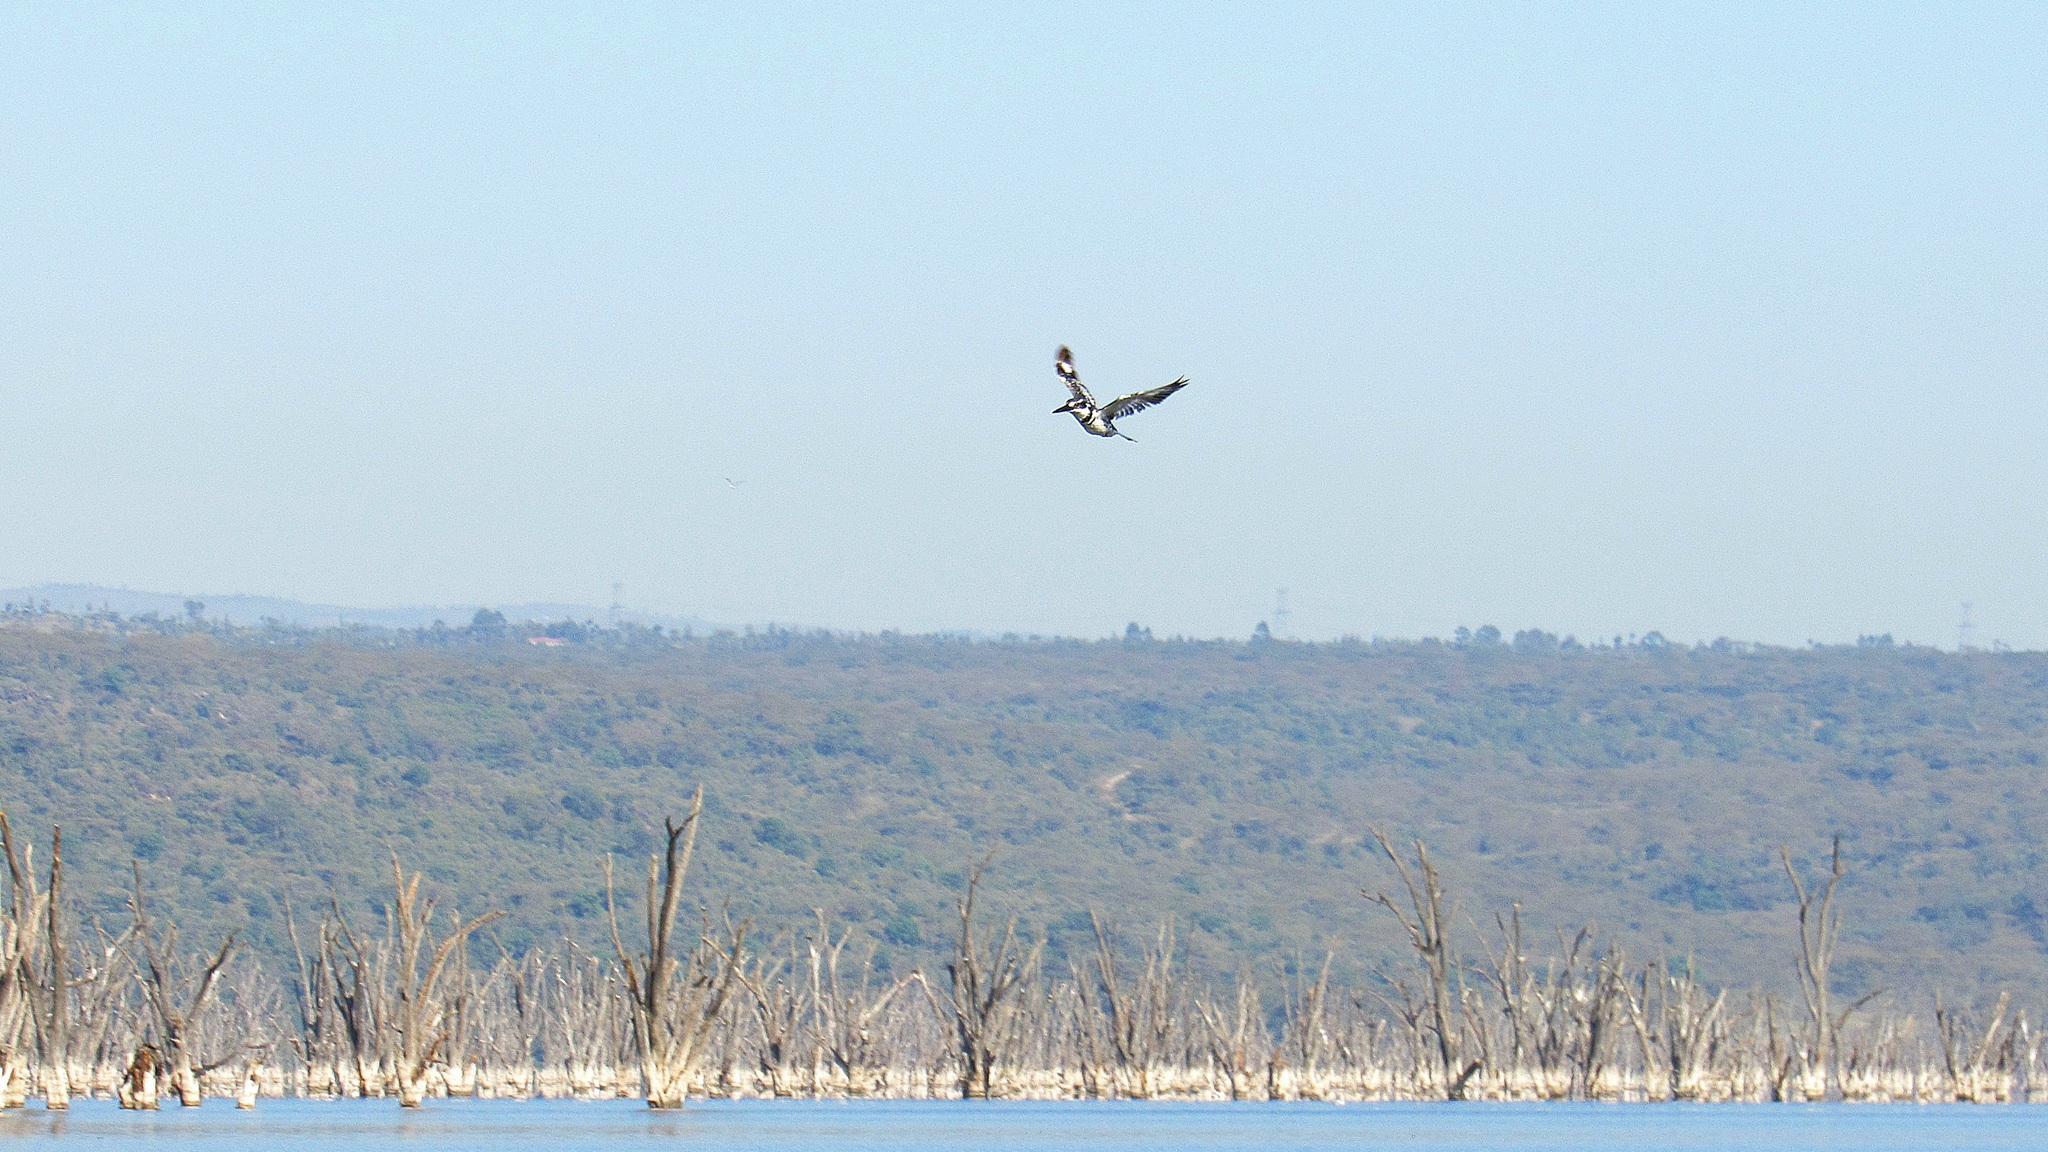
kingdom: Animalia
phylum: Chordata
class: Aves
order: Coraciiformes
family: Alcedinidae
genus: Ceryle
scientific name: Ceryle rudis
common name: Pied kingfisher
